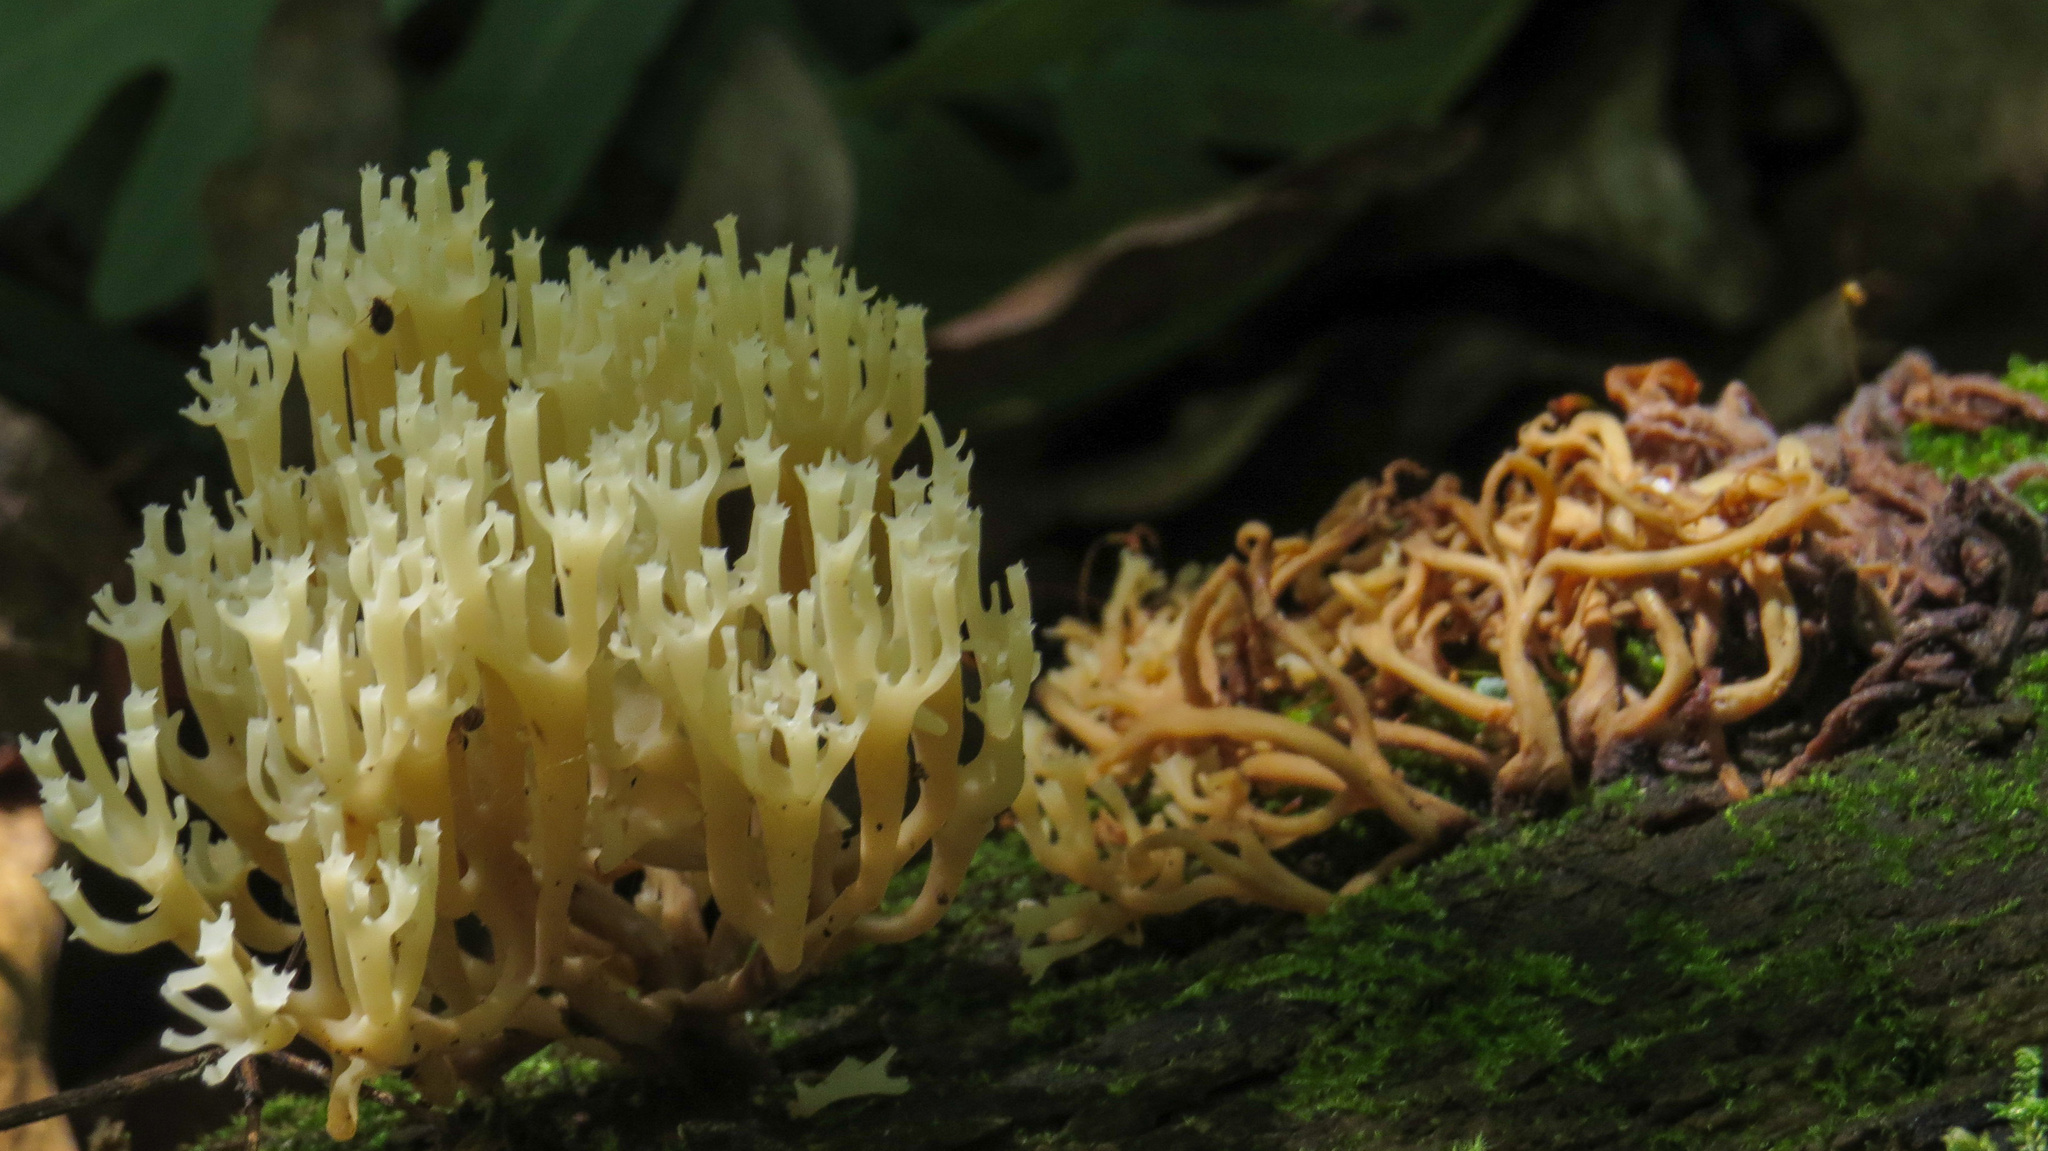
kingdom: Fungi
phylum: Basidiomycota
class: Agaricomycetes
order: Russulales
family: Auriscalpiaceae
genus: Artomyces
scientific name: Artomyces pyxidatus
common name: Crown-tipped coral fungus
